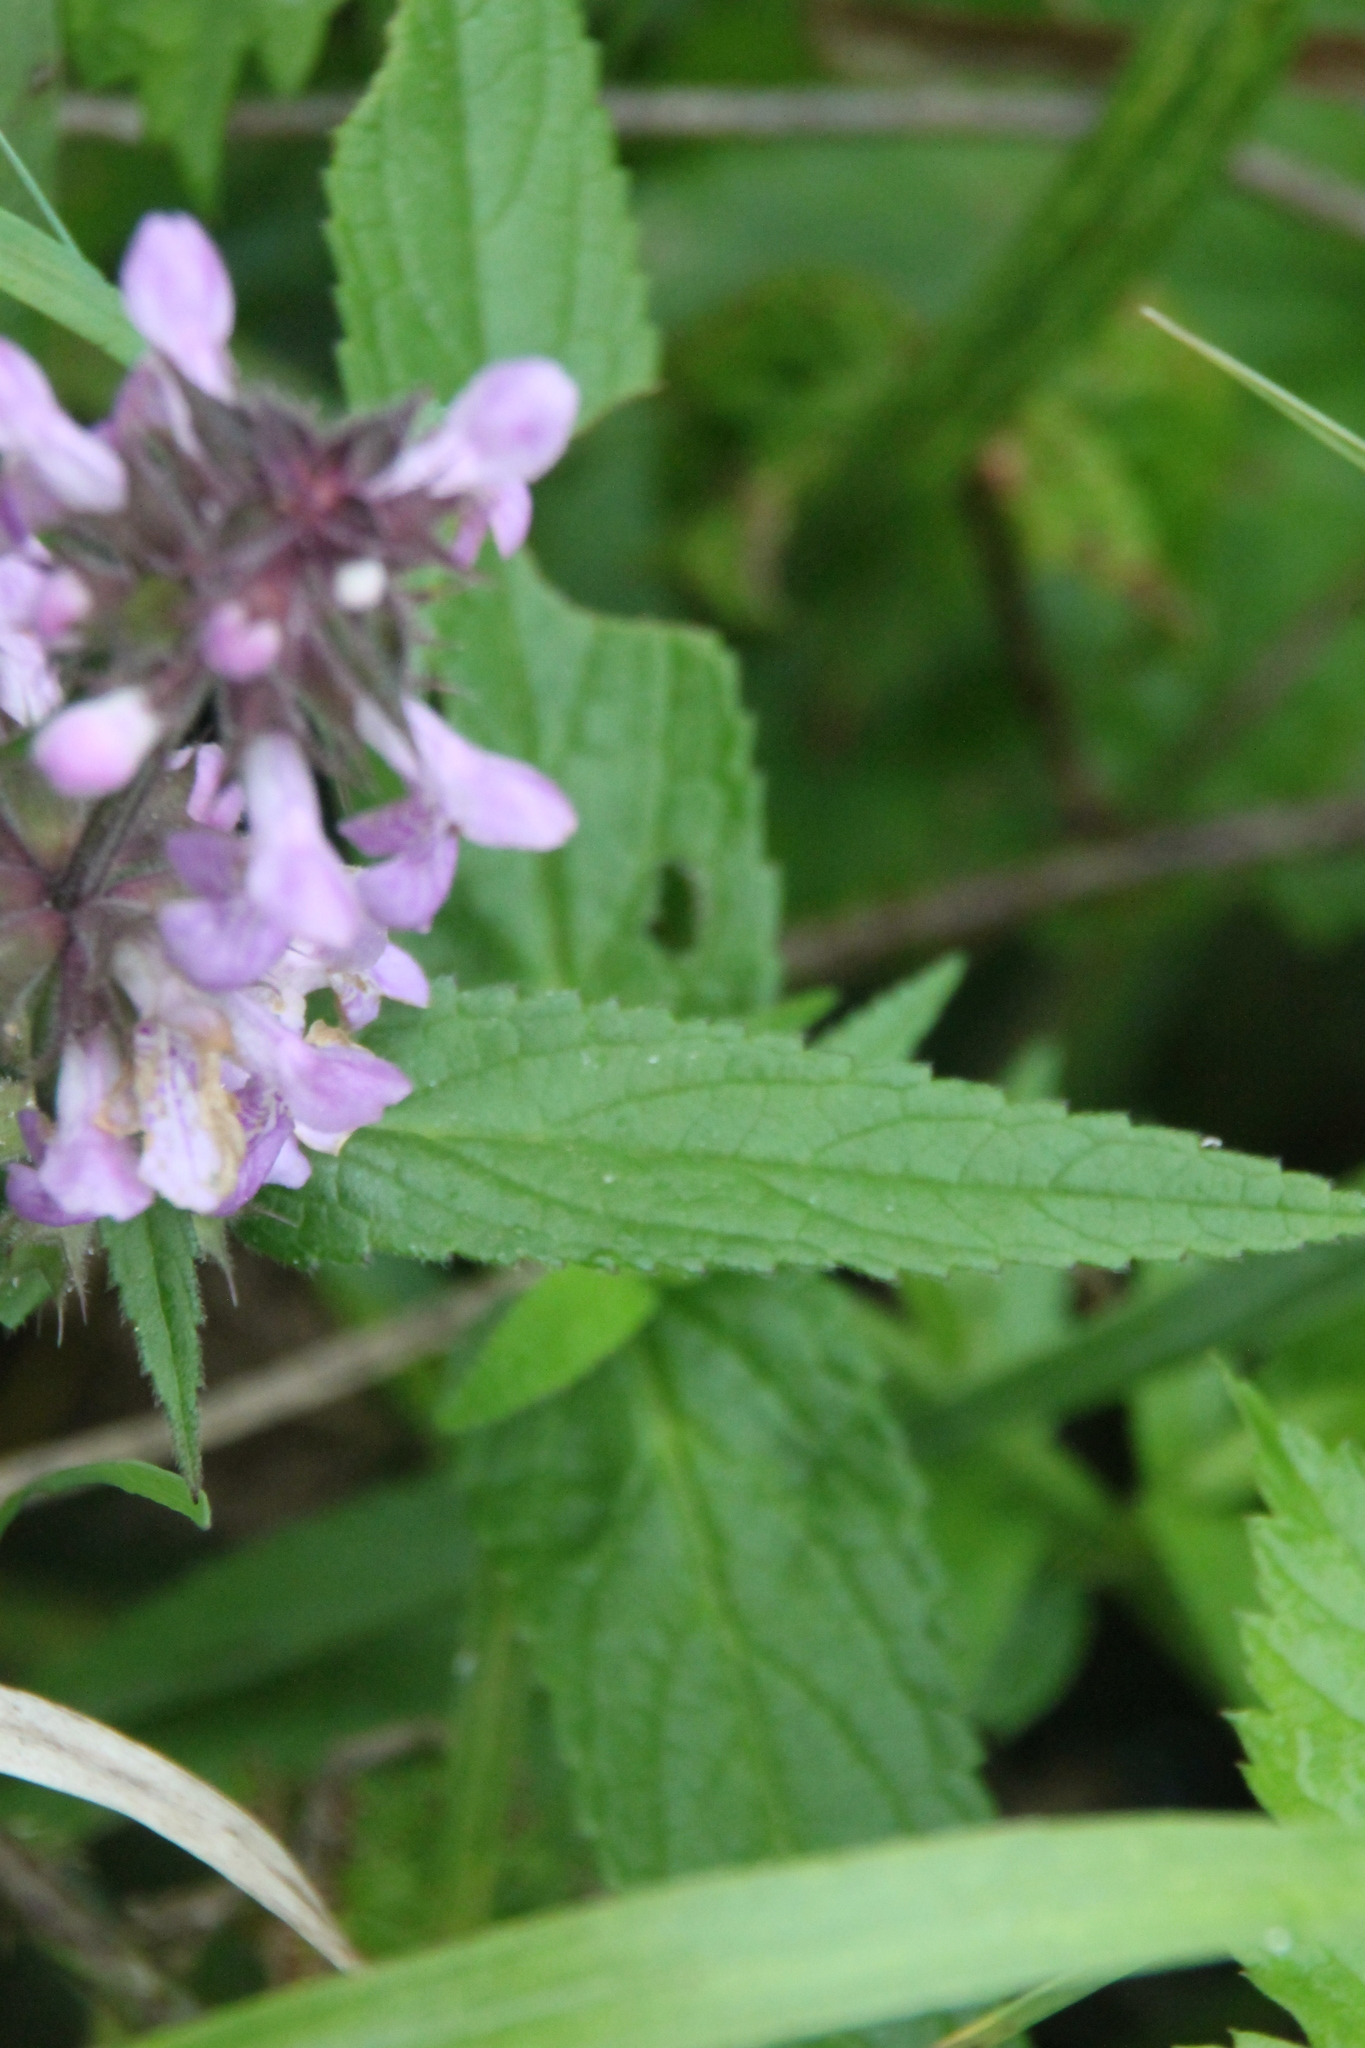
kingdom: Plantae
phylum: Tracheophyta
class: Magnoliopsida
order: Lamiales
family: Lamiaceae
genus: Stachys
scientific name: Stachys palustris
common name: Marsh woundwort
